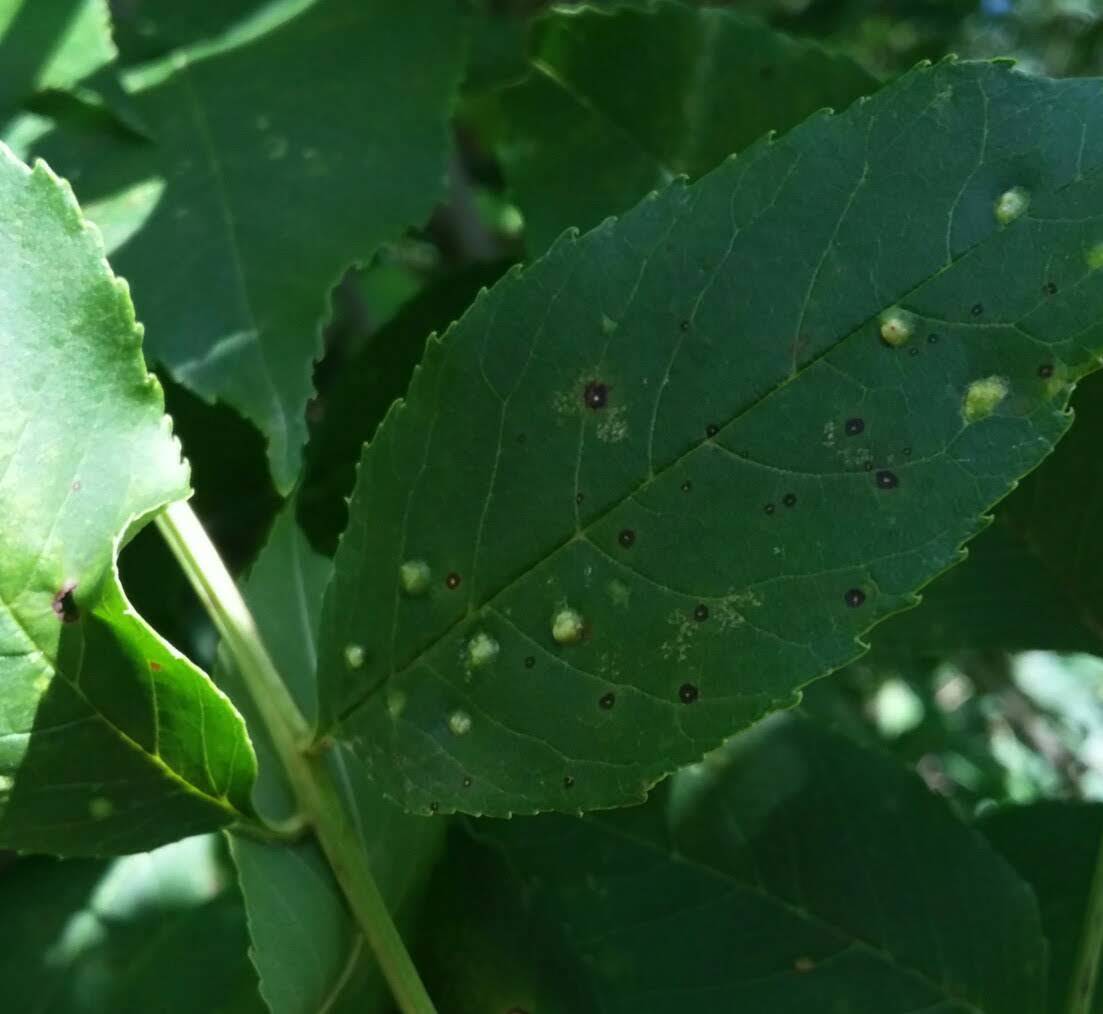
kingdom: Animalia
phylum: Arthropoda
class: Arachnida
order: Trombidiformes
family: Eriophyidae
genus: Aceria
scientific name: Aceria fraxinicola
